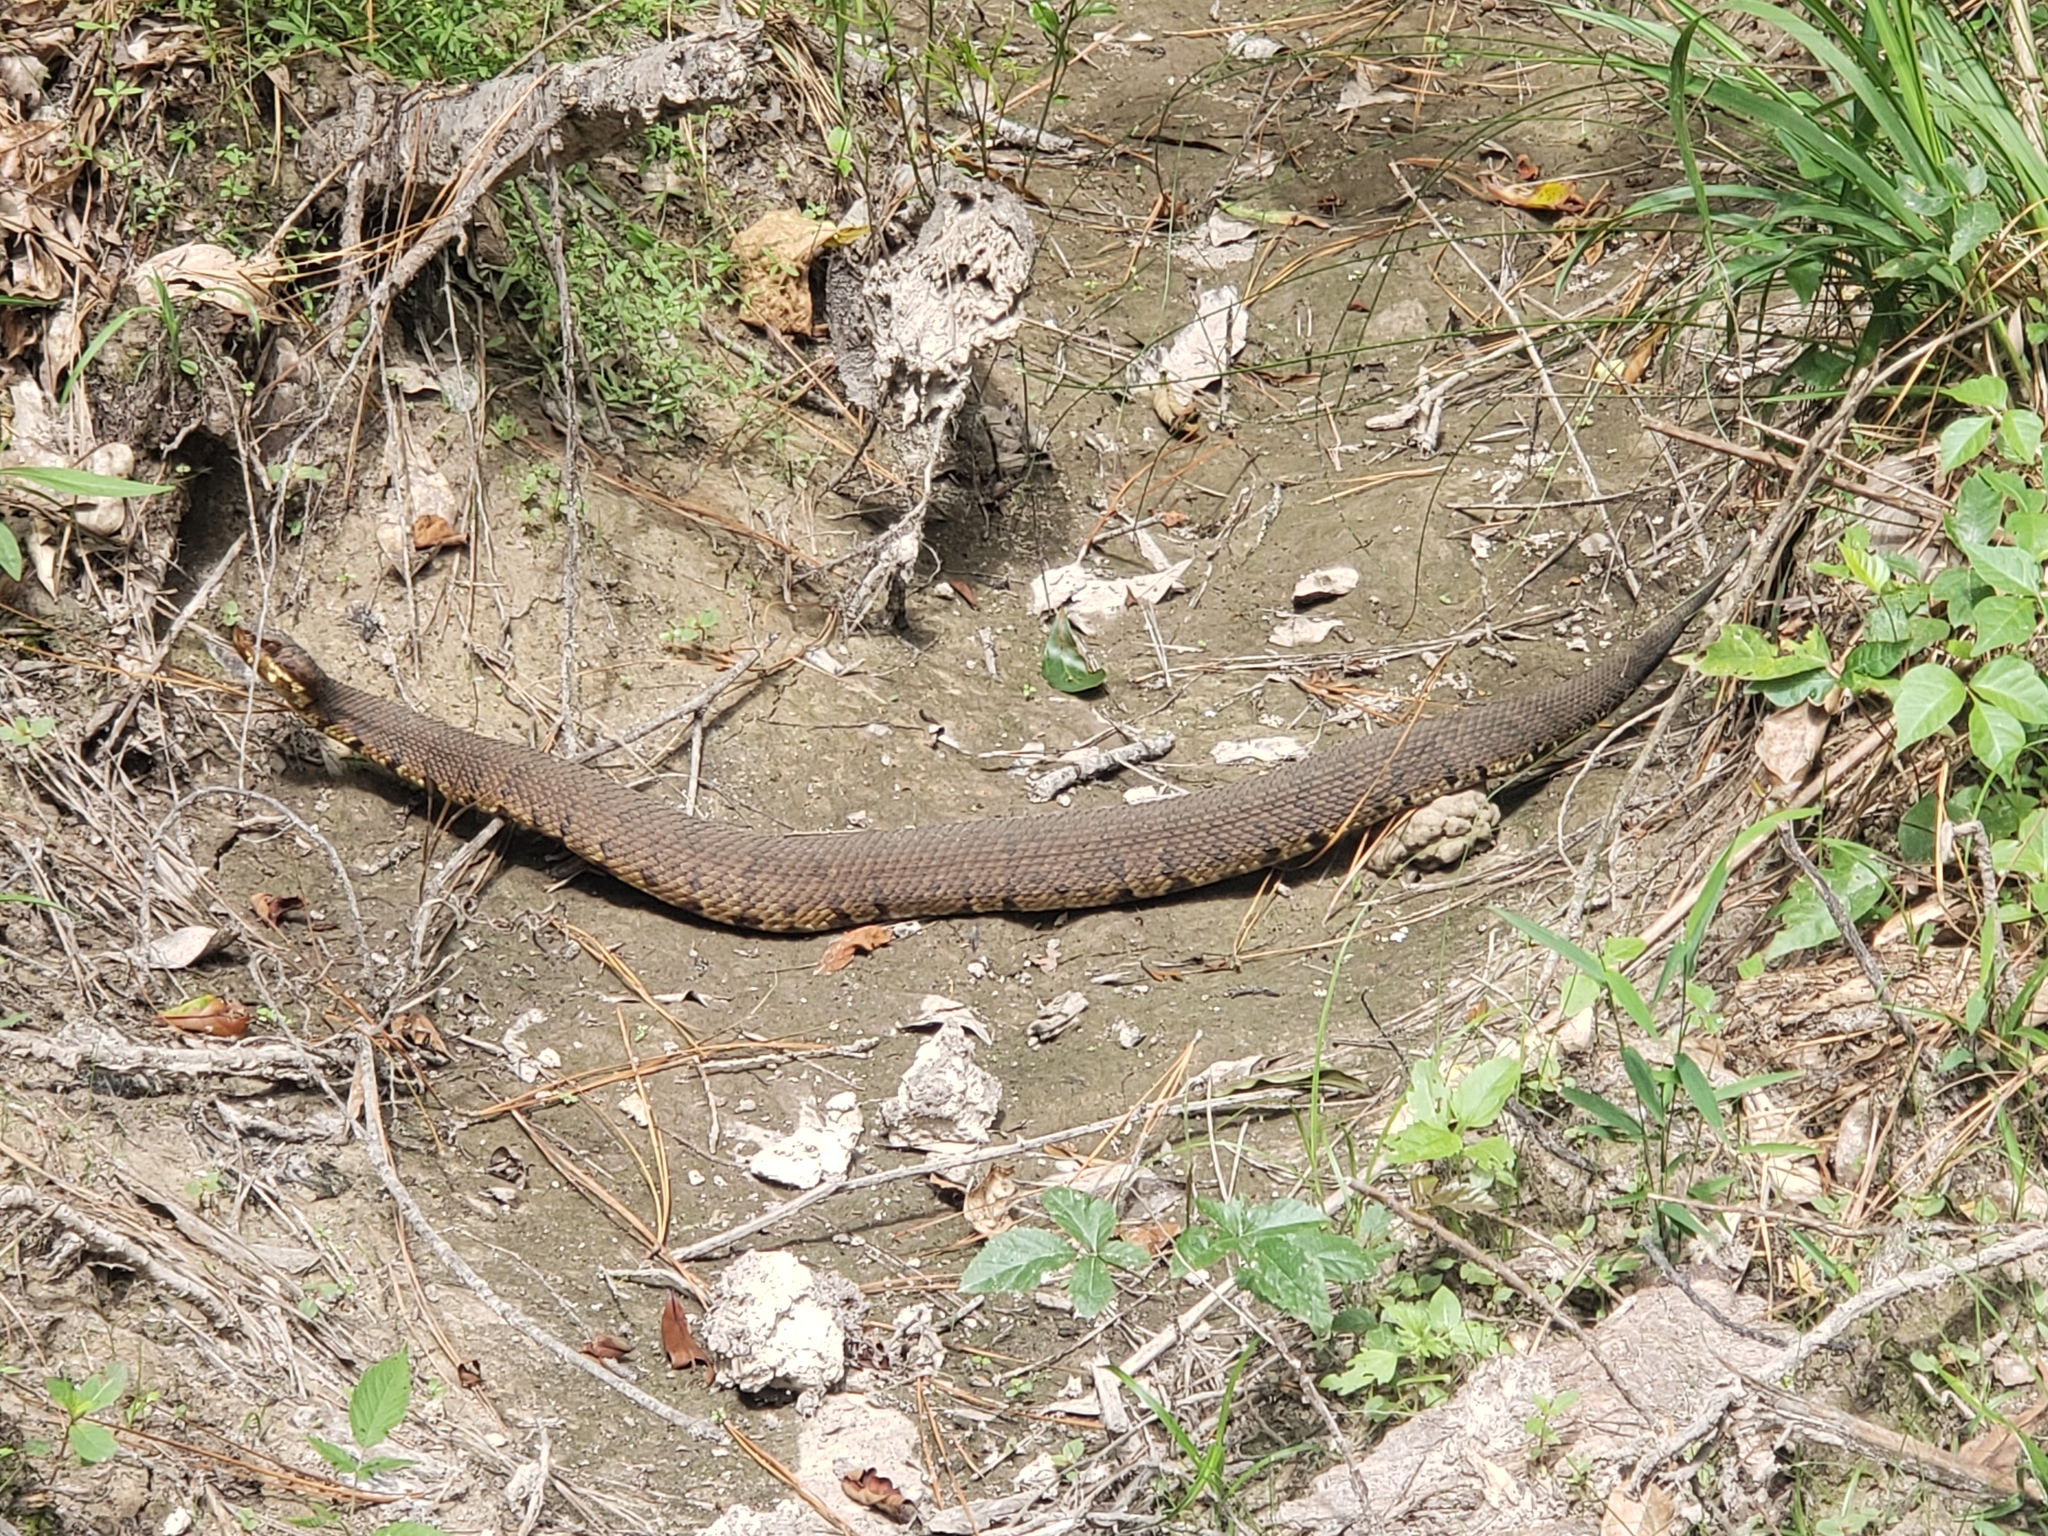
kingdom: Animalia
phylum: Chordata
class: Squamata
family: Viperidae
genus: Agkistrodon
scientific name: Agkistrodon piscivorus
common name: Cottonmouth
